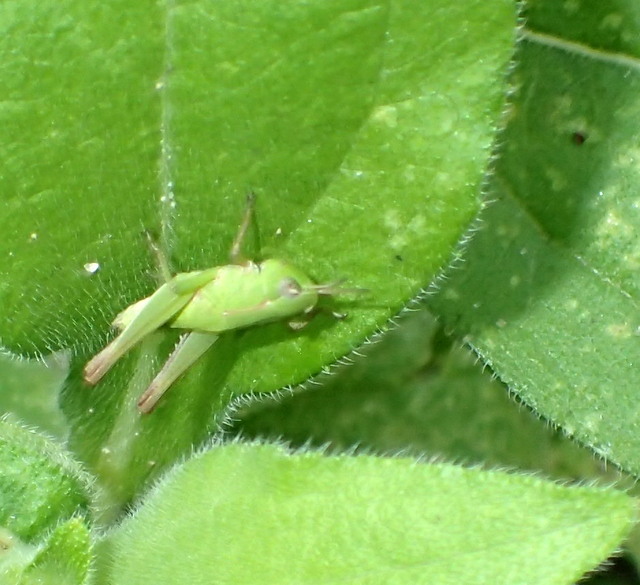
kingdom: Animalia
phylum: Arthropoda
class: Insecta
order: Orthoptera
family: Acrididae
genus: Dichromorpha
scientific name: Dichromorpha viridis
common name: Short-winged green grasshopper
